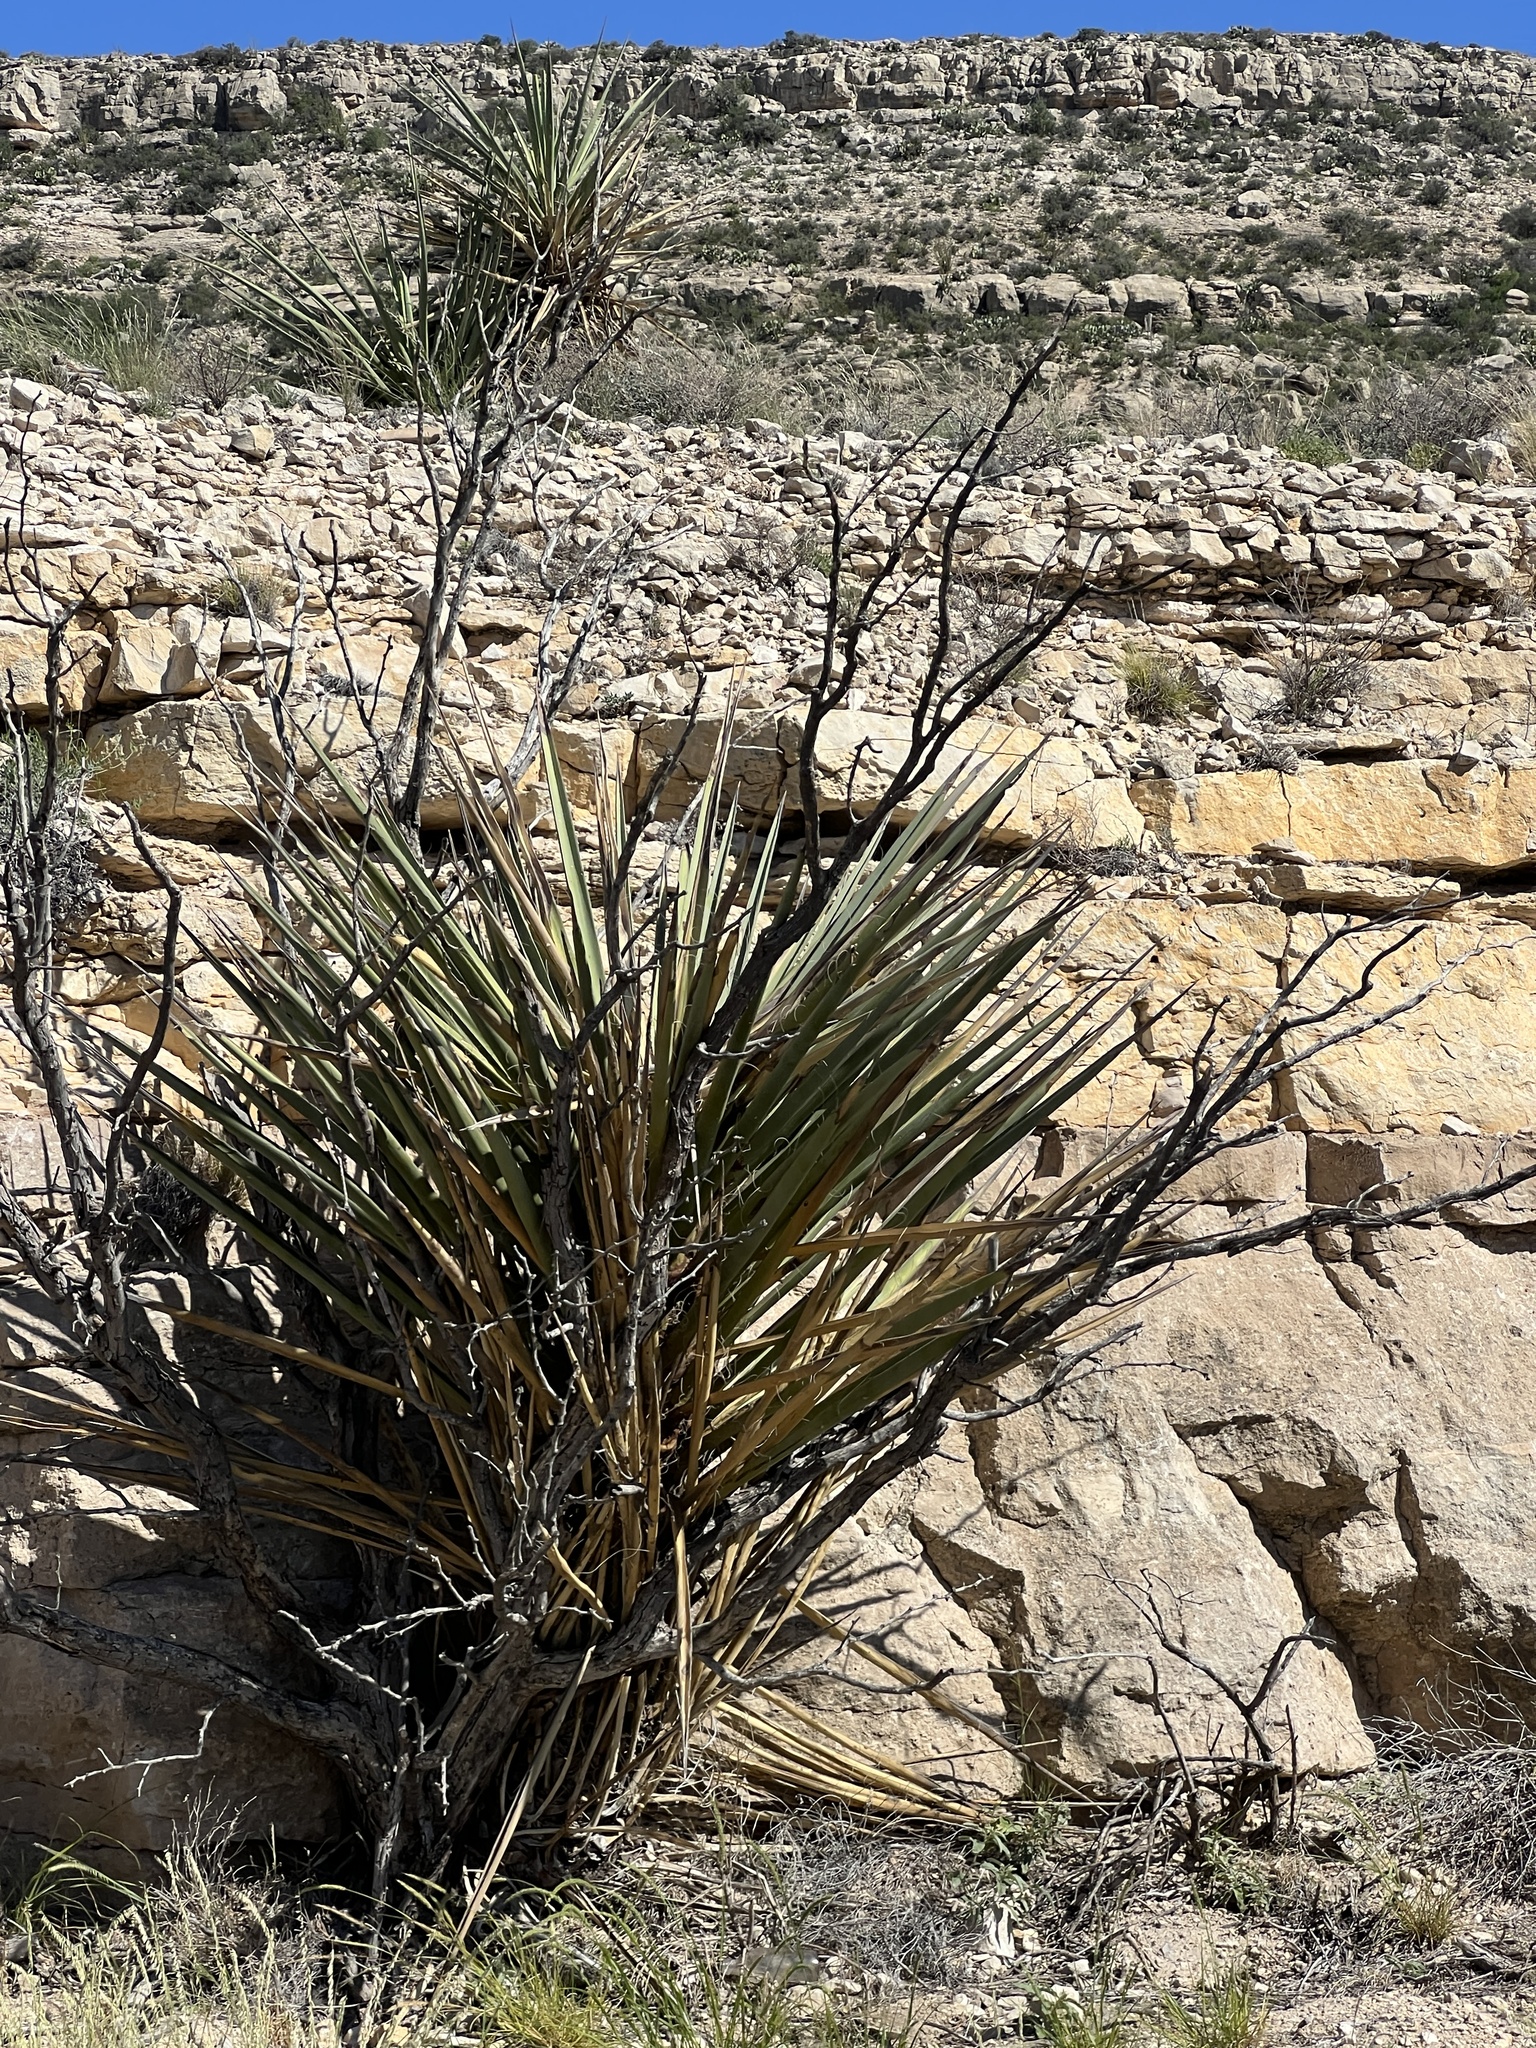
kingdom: Plantae
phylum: Tracheophyta
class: Liliopsida
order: Asparagales
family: Asparagaceae
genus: Yucca
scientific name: Yucca treculiana
